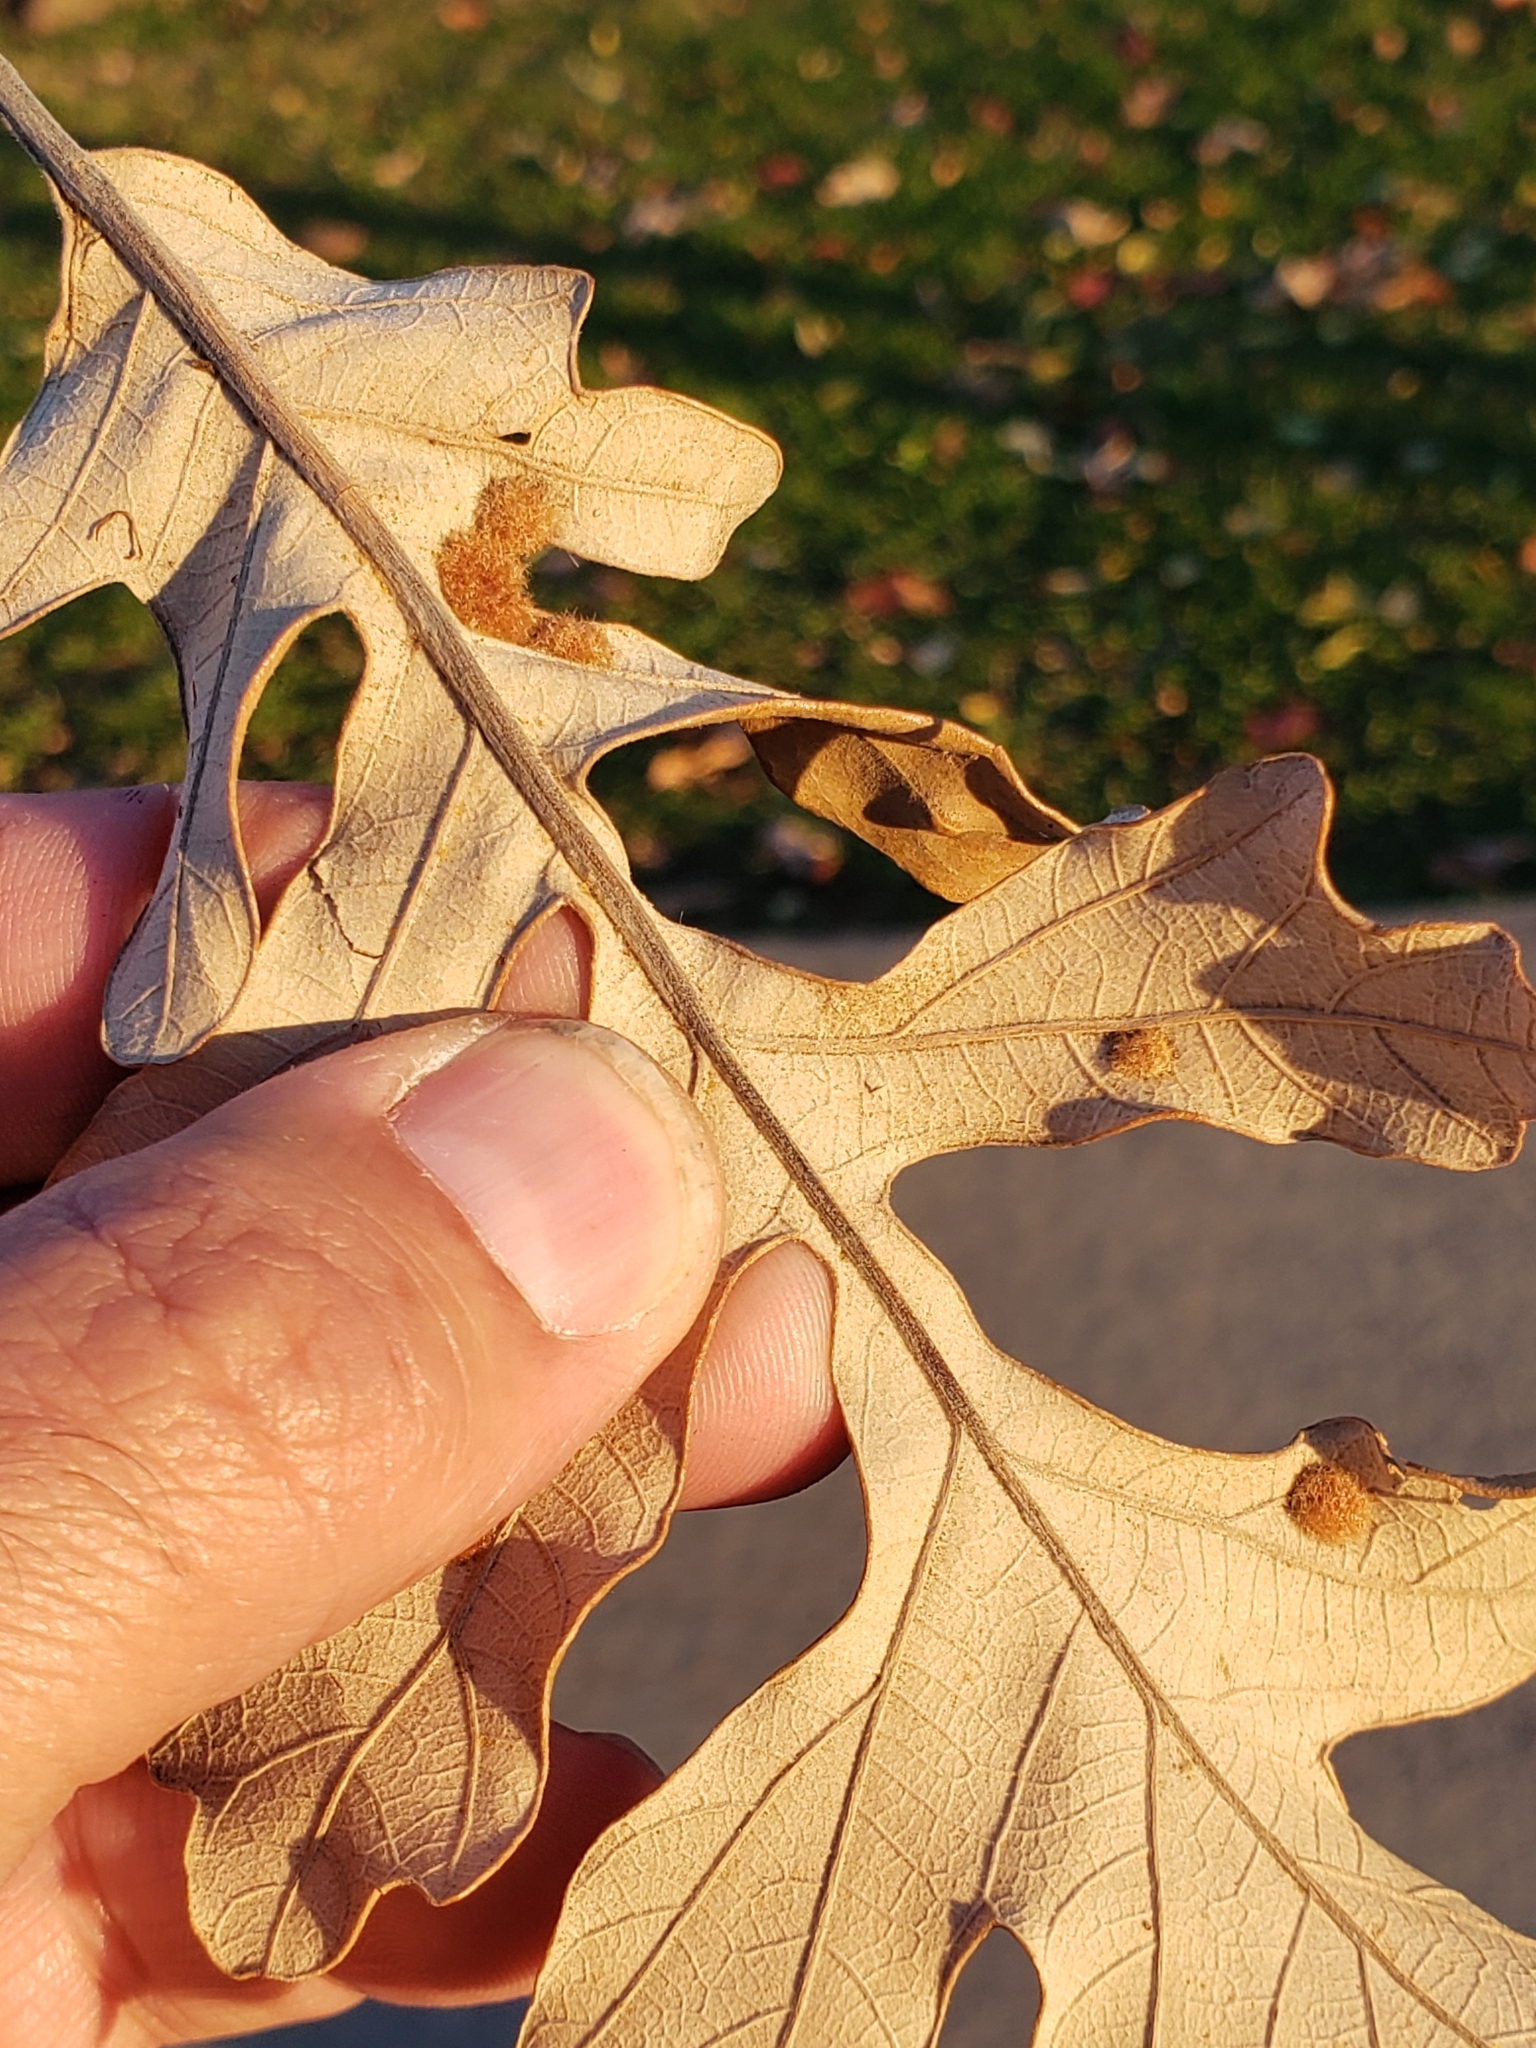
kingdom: Animalia
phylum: Arthropoda
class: Insecta
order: Hymenoptera
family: Cynipidae
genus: Neuroterus
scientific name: Neuroterus quercusverrucarum
